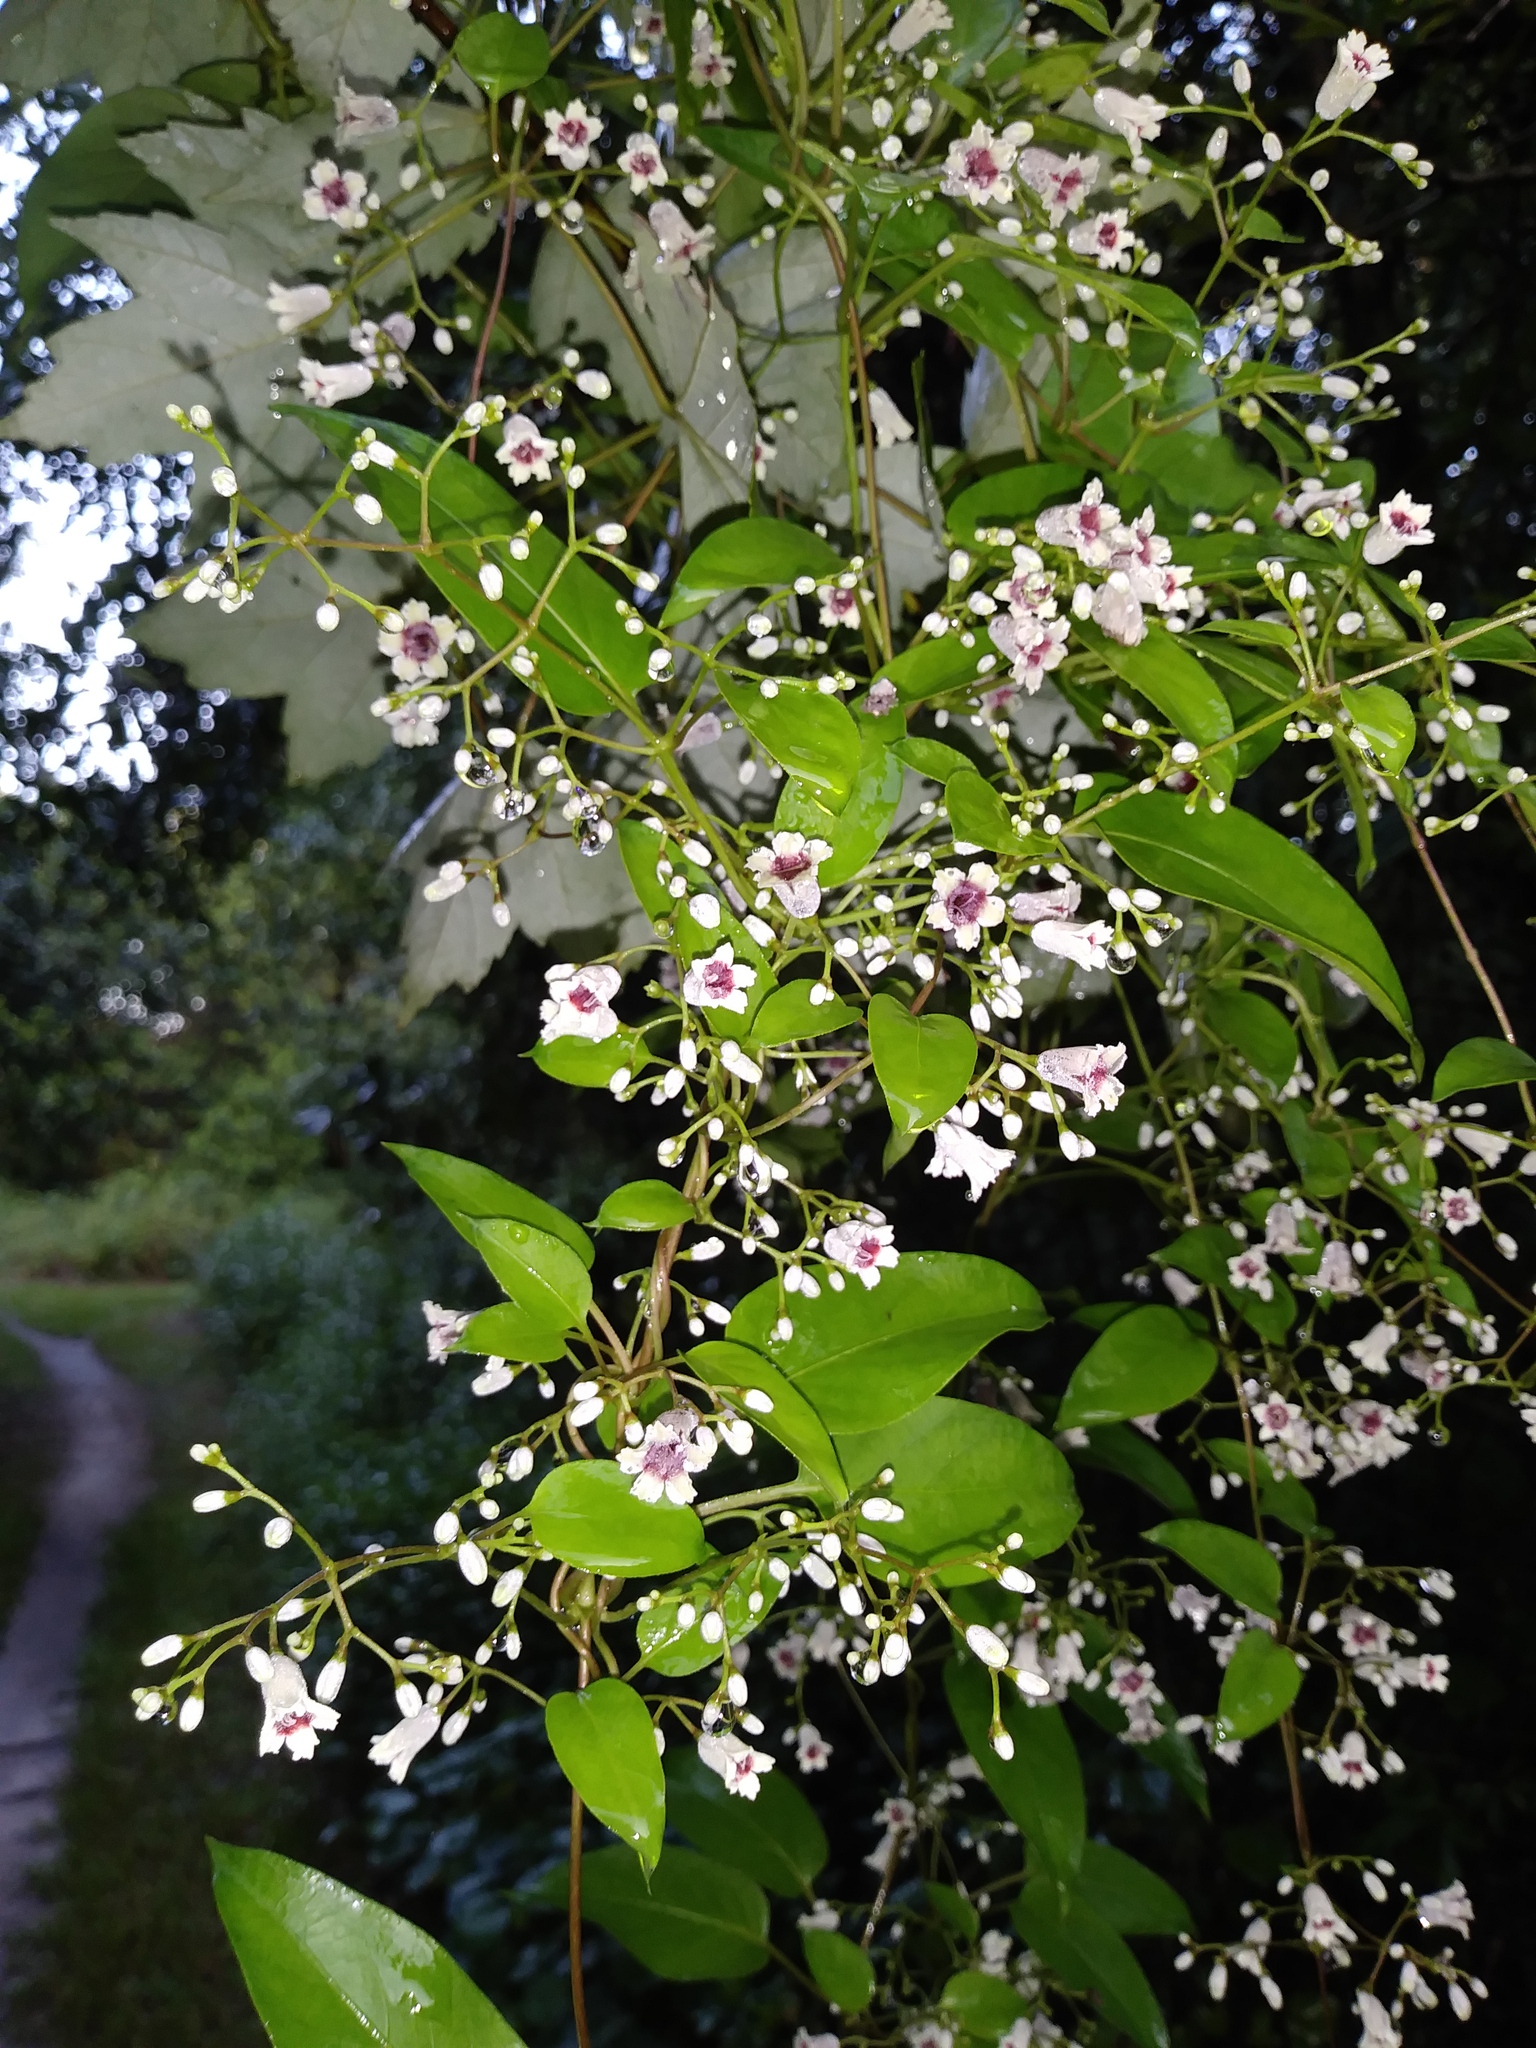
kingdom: Plantae
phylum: Tracheophyta
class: Magnoliopsida
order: Gentianales
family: Rubiaceae
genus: Paederia
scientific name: Paederia foetida
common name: Stinkvine
